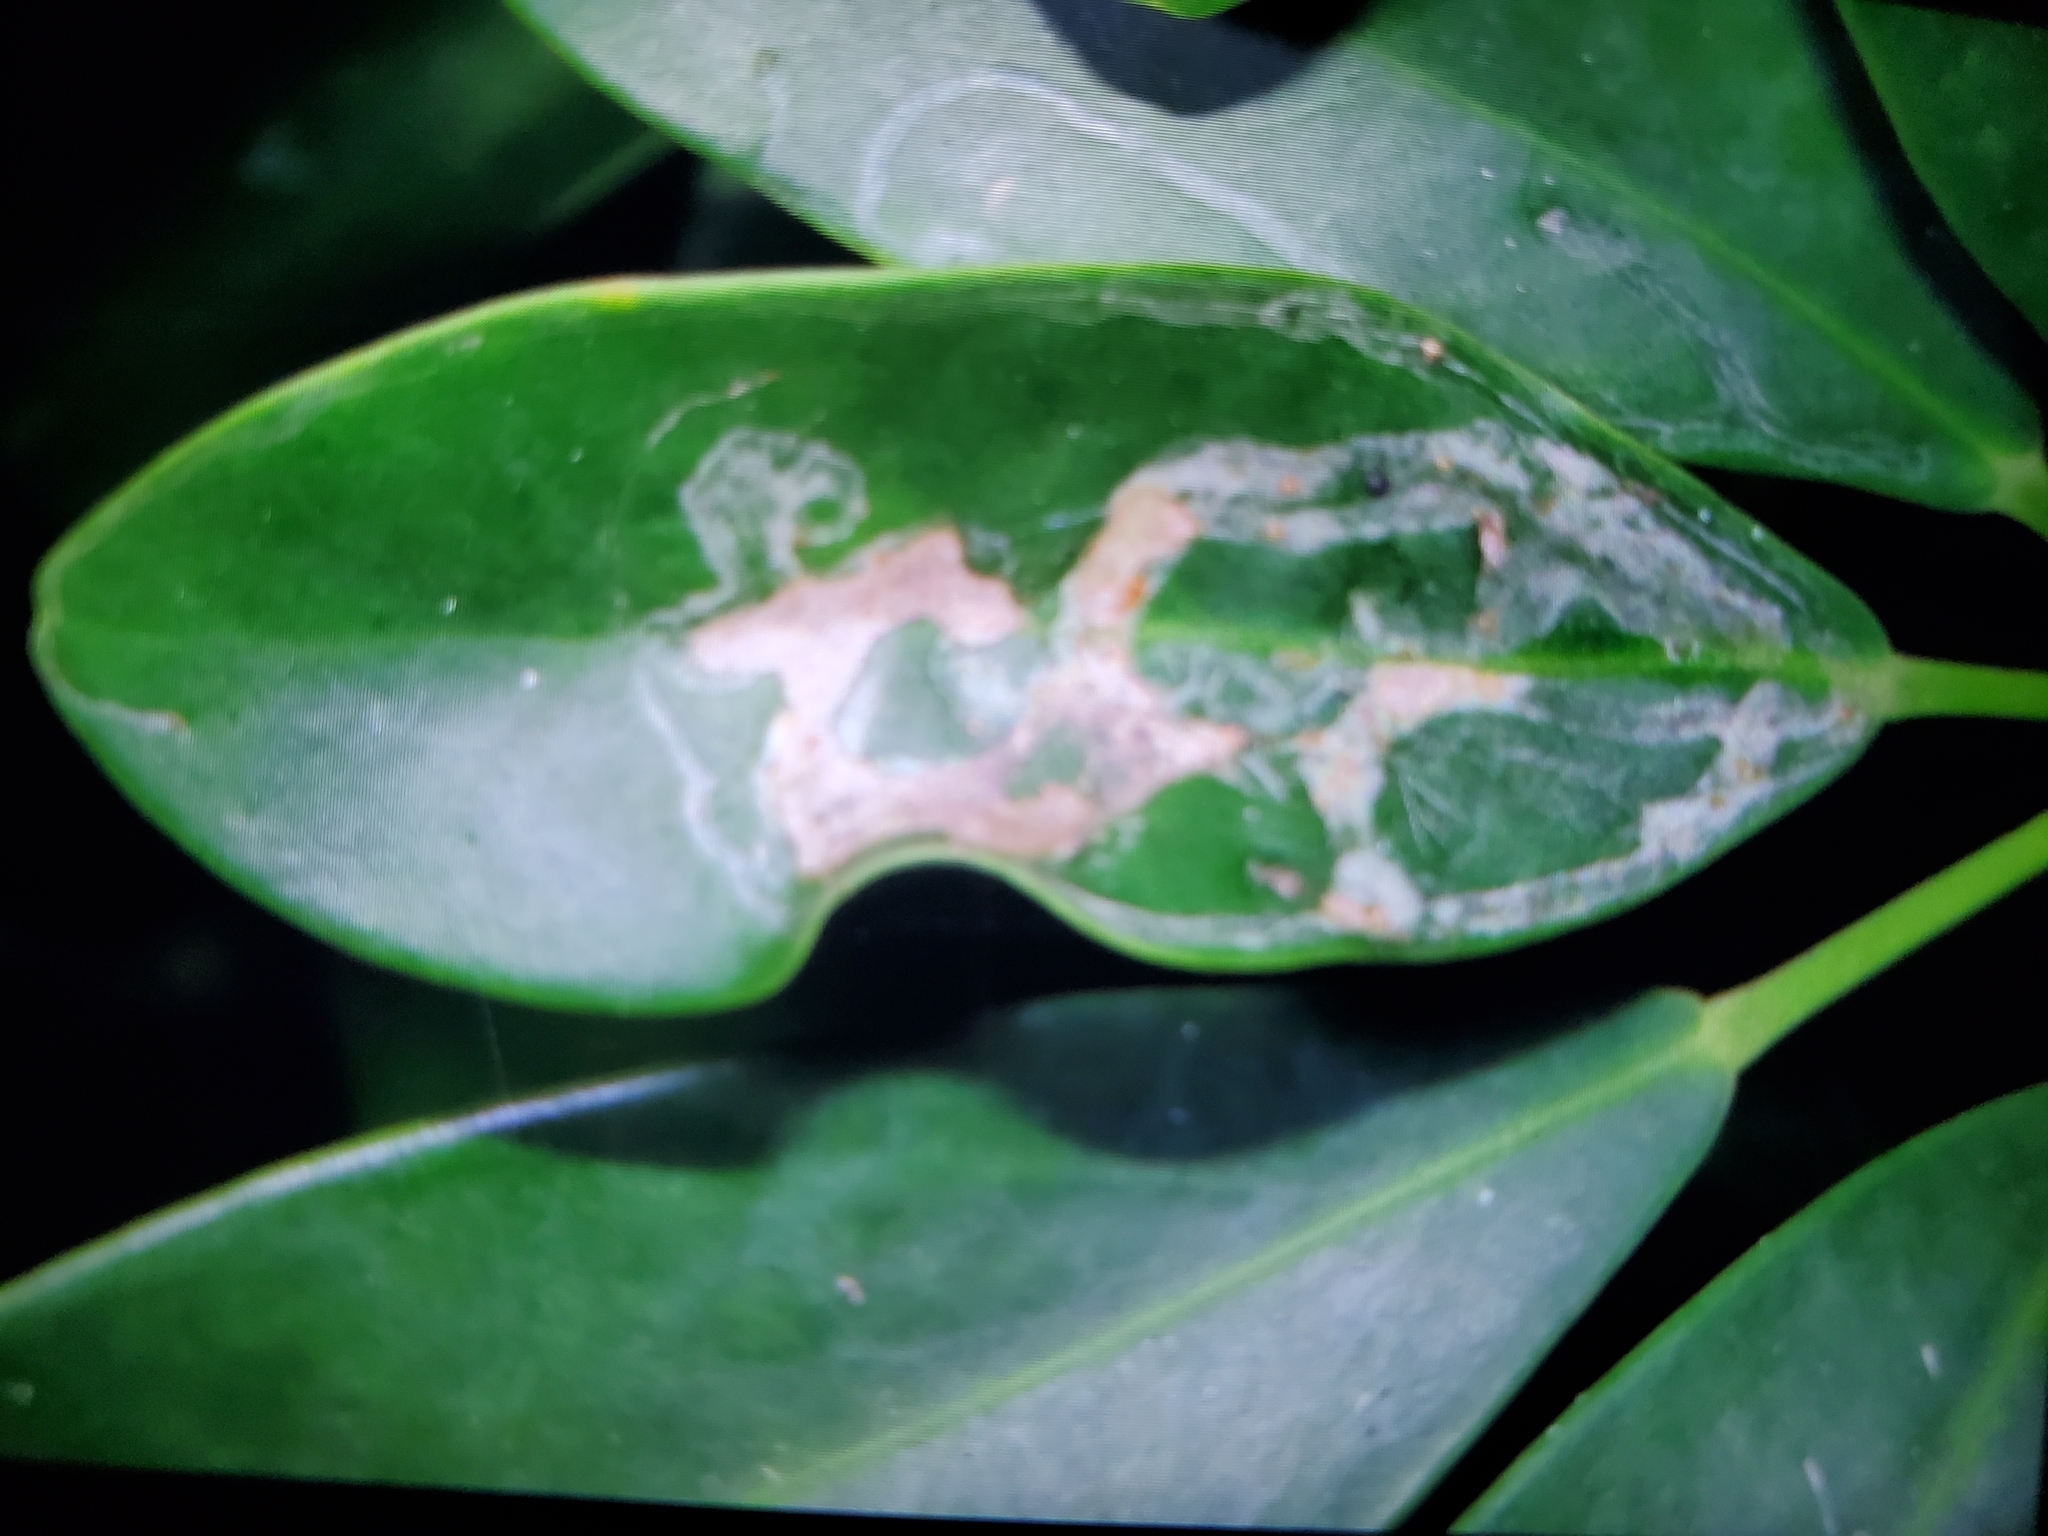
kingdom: Animalia
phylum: Arthropoda
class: Insecta
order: Diptera
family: Agromyzidae
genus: Liriomyza
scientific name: Liriomyza schmidti
